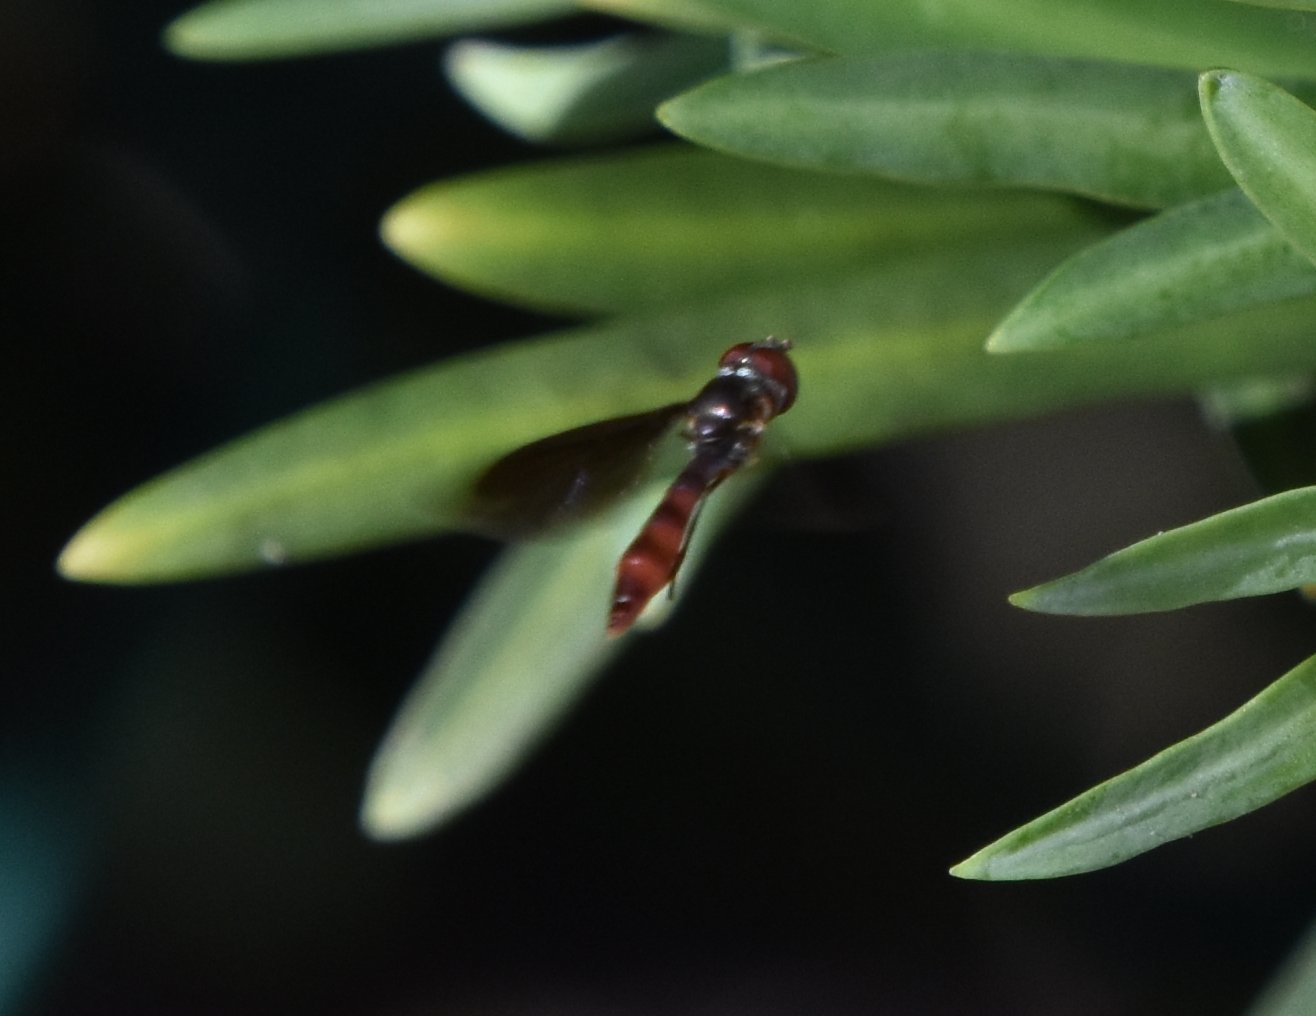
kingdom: Animalia
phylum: Arthropoda
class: Insecta
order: Diptera
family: Syrphidae
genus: Ocyptamus
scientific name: Ocyptamus fuscipennis
